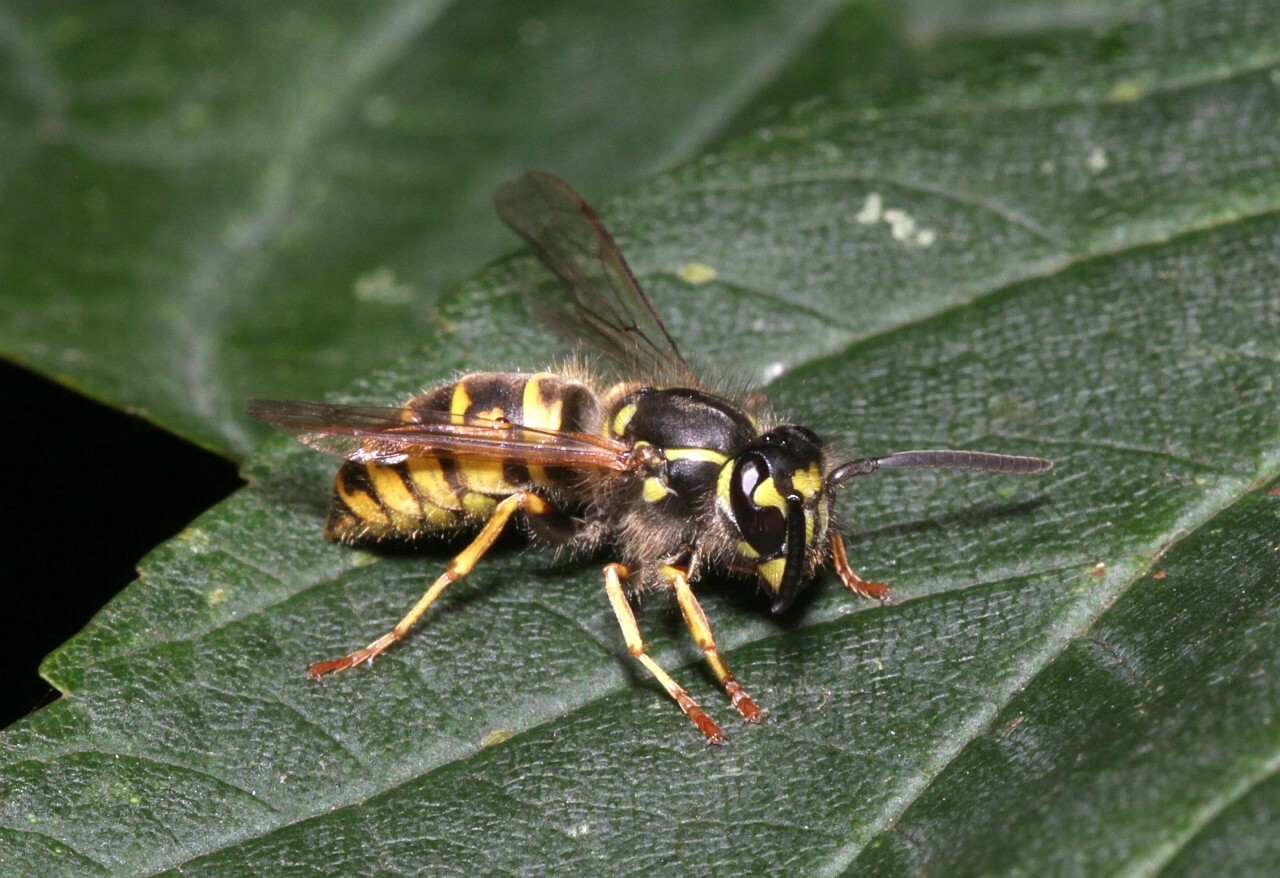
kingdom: Animalia
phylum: Arthropoda
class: Insecta
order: Hymenoptera
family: Vespidae
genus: Vespula
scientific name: Vespula vulgaris
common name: Common wasp
